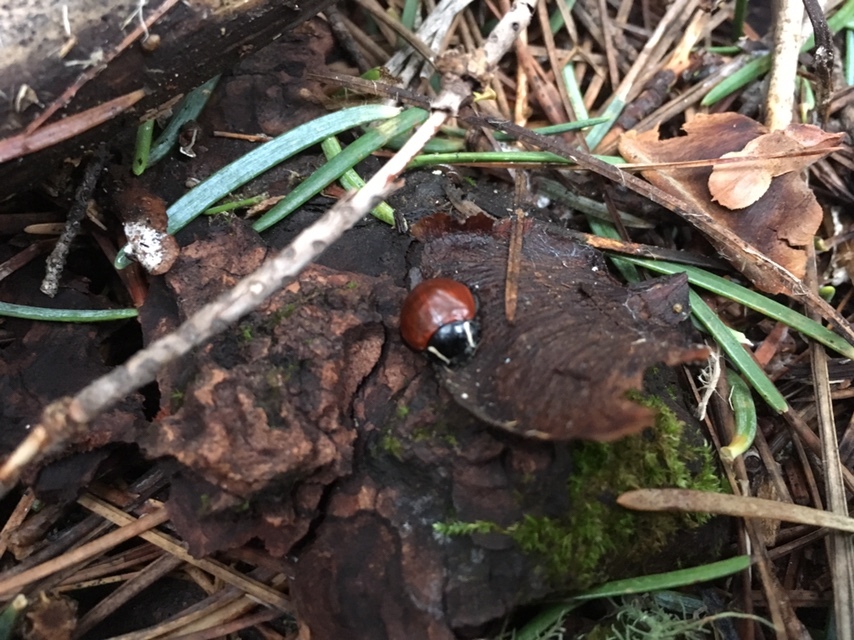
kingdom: Animalia
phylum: Arthropoda
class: Insecta
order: Coleoptera
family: Coccinellidae
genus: Anatis
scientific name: Anatis lecontei
